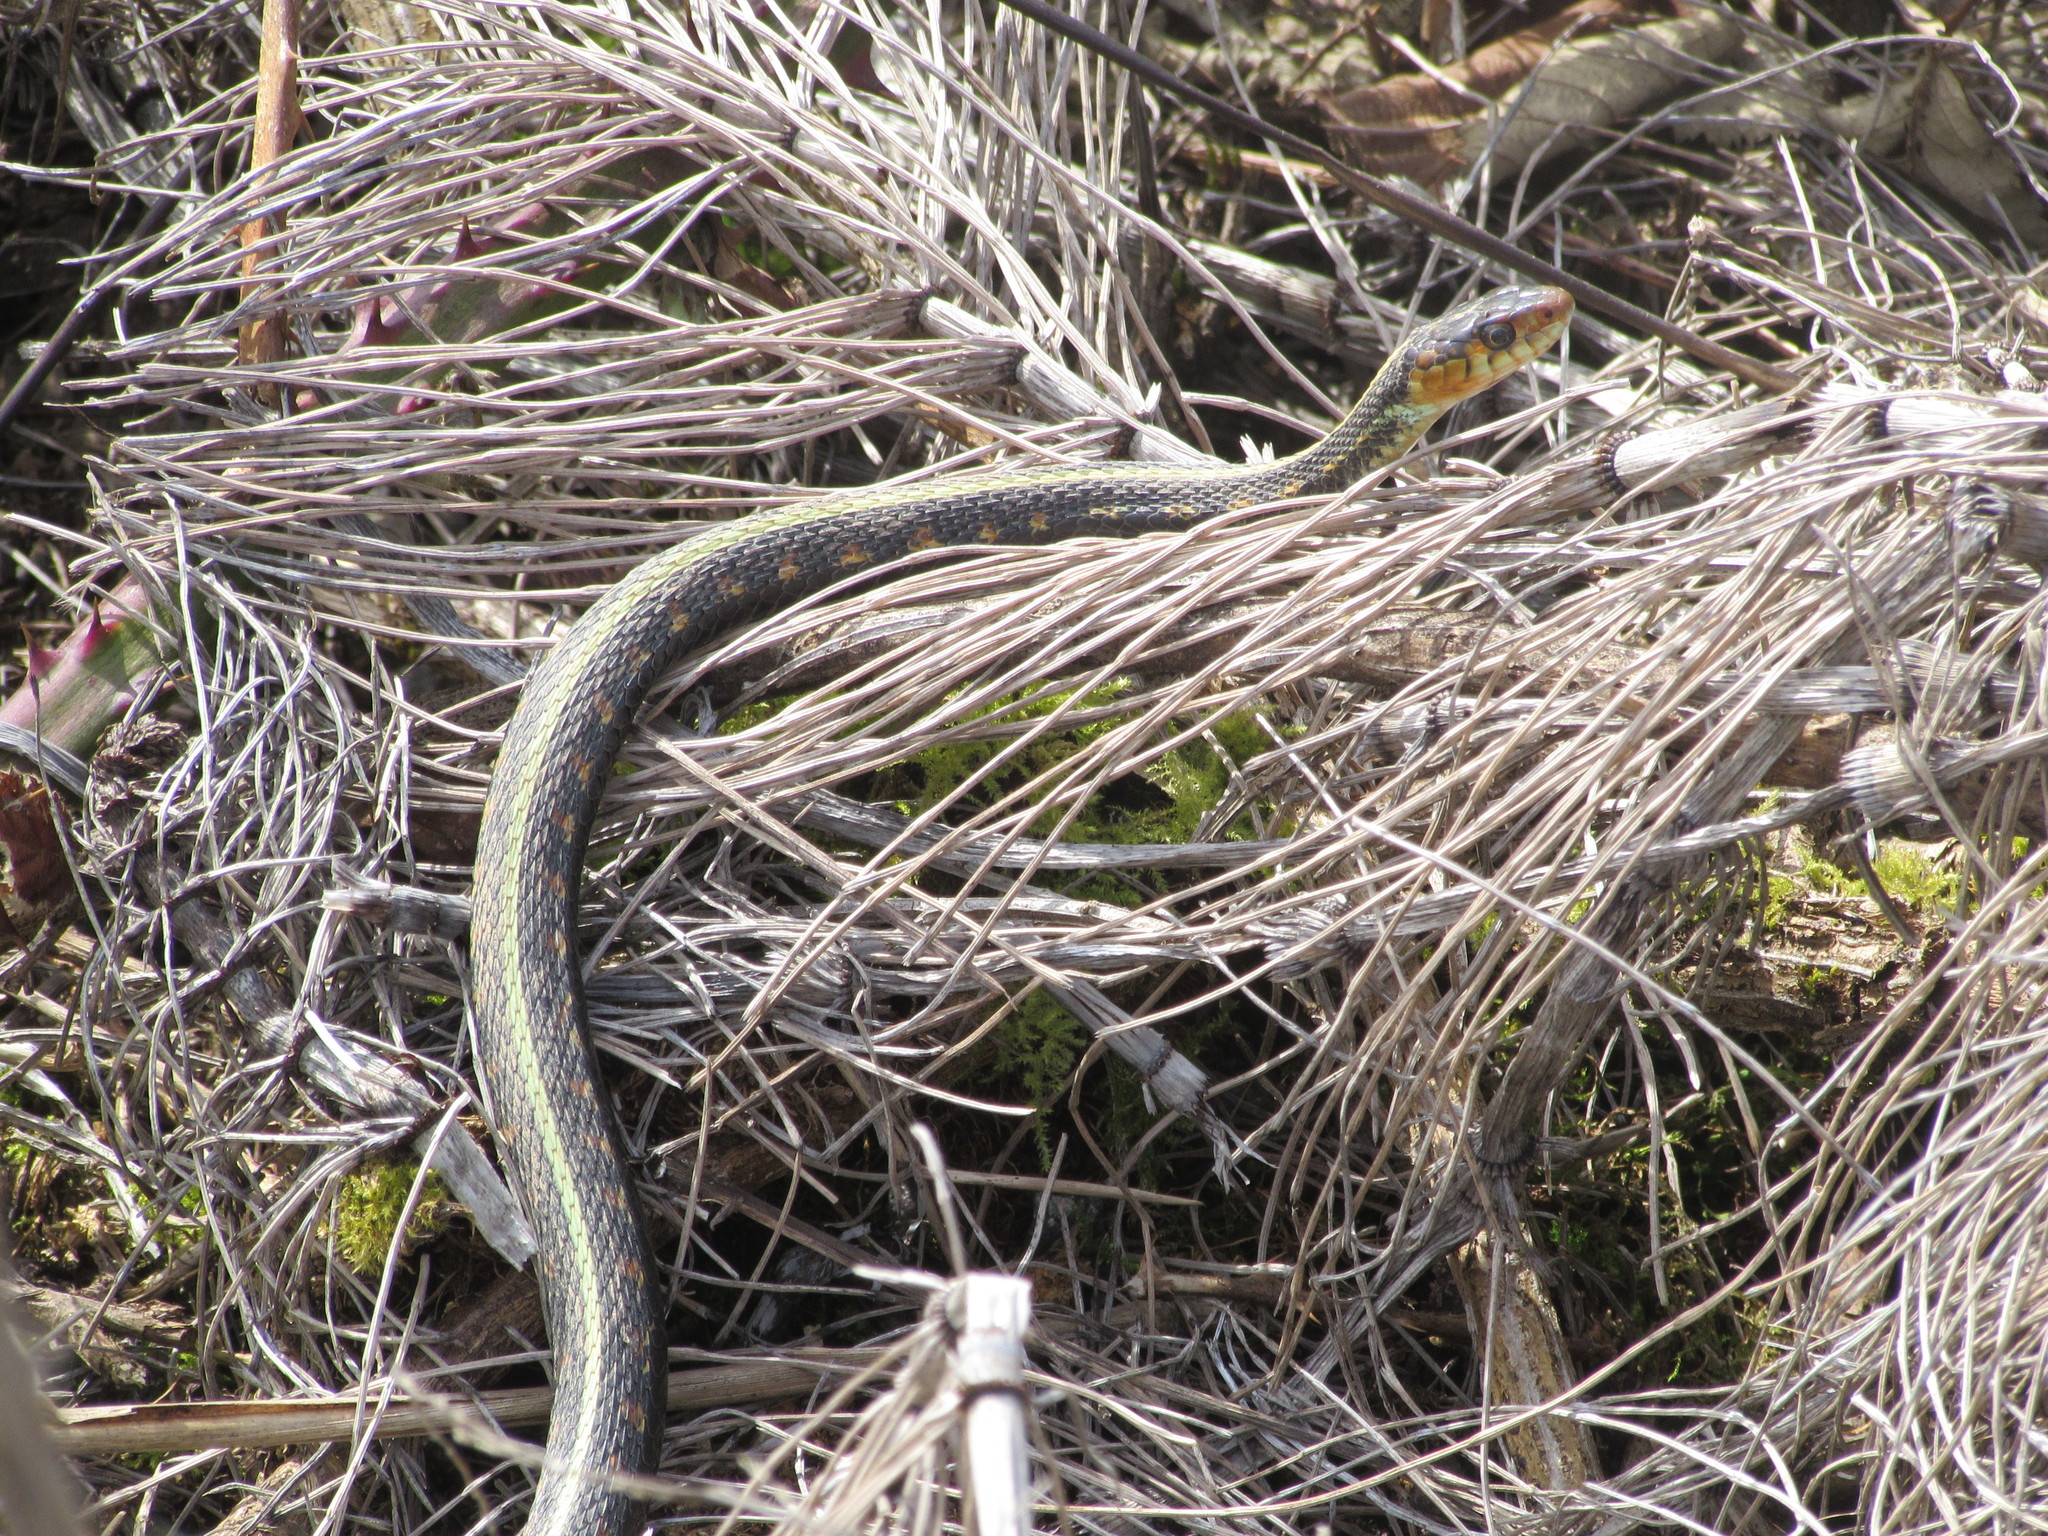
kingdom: Animalia
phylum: Chordata
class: Squamata
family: Colubridae
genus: Thamnophis
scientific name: Thamnophis sirtalis
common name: Common garter snake
